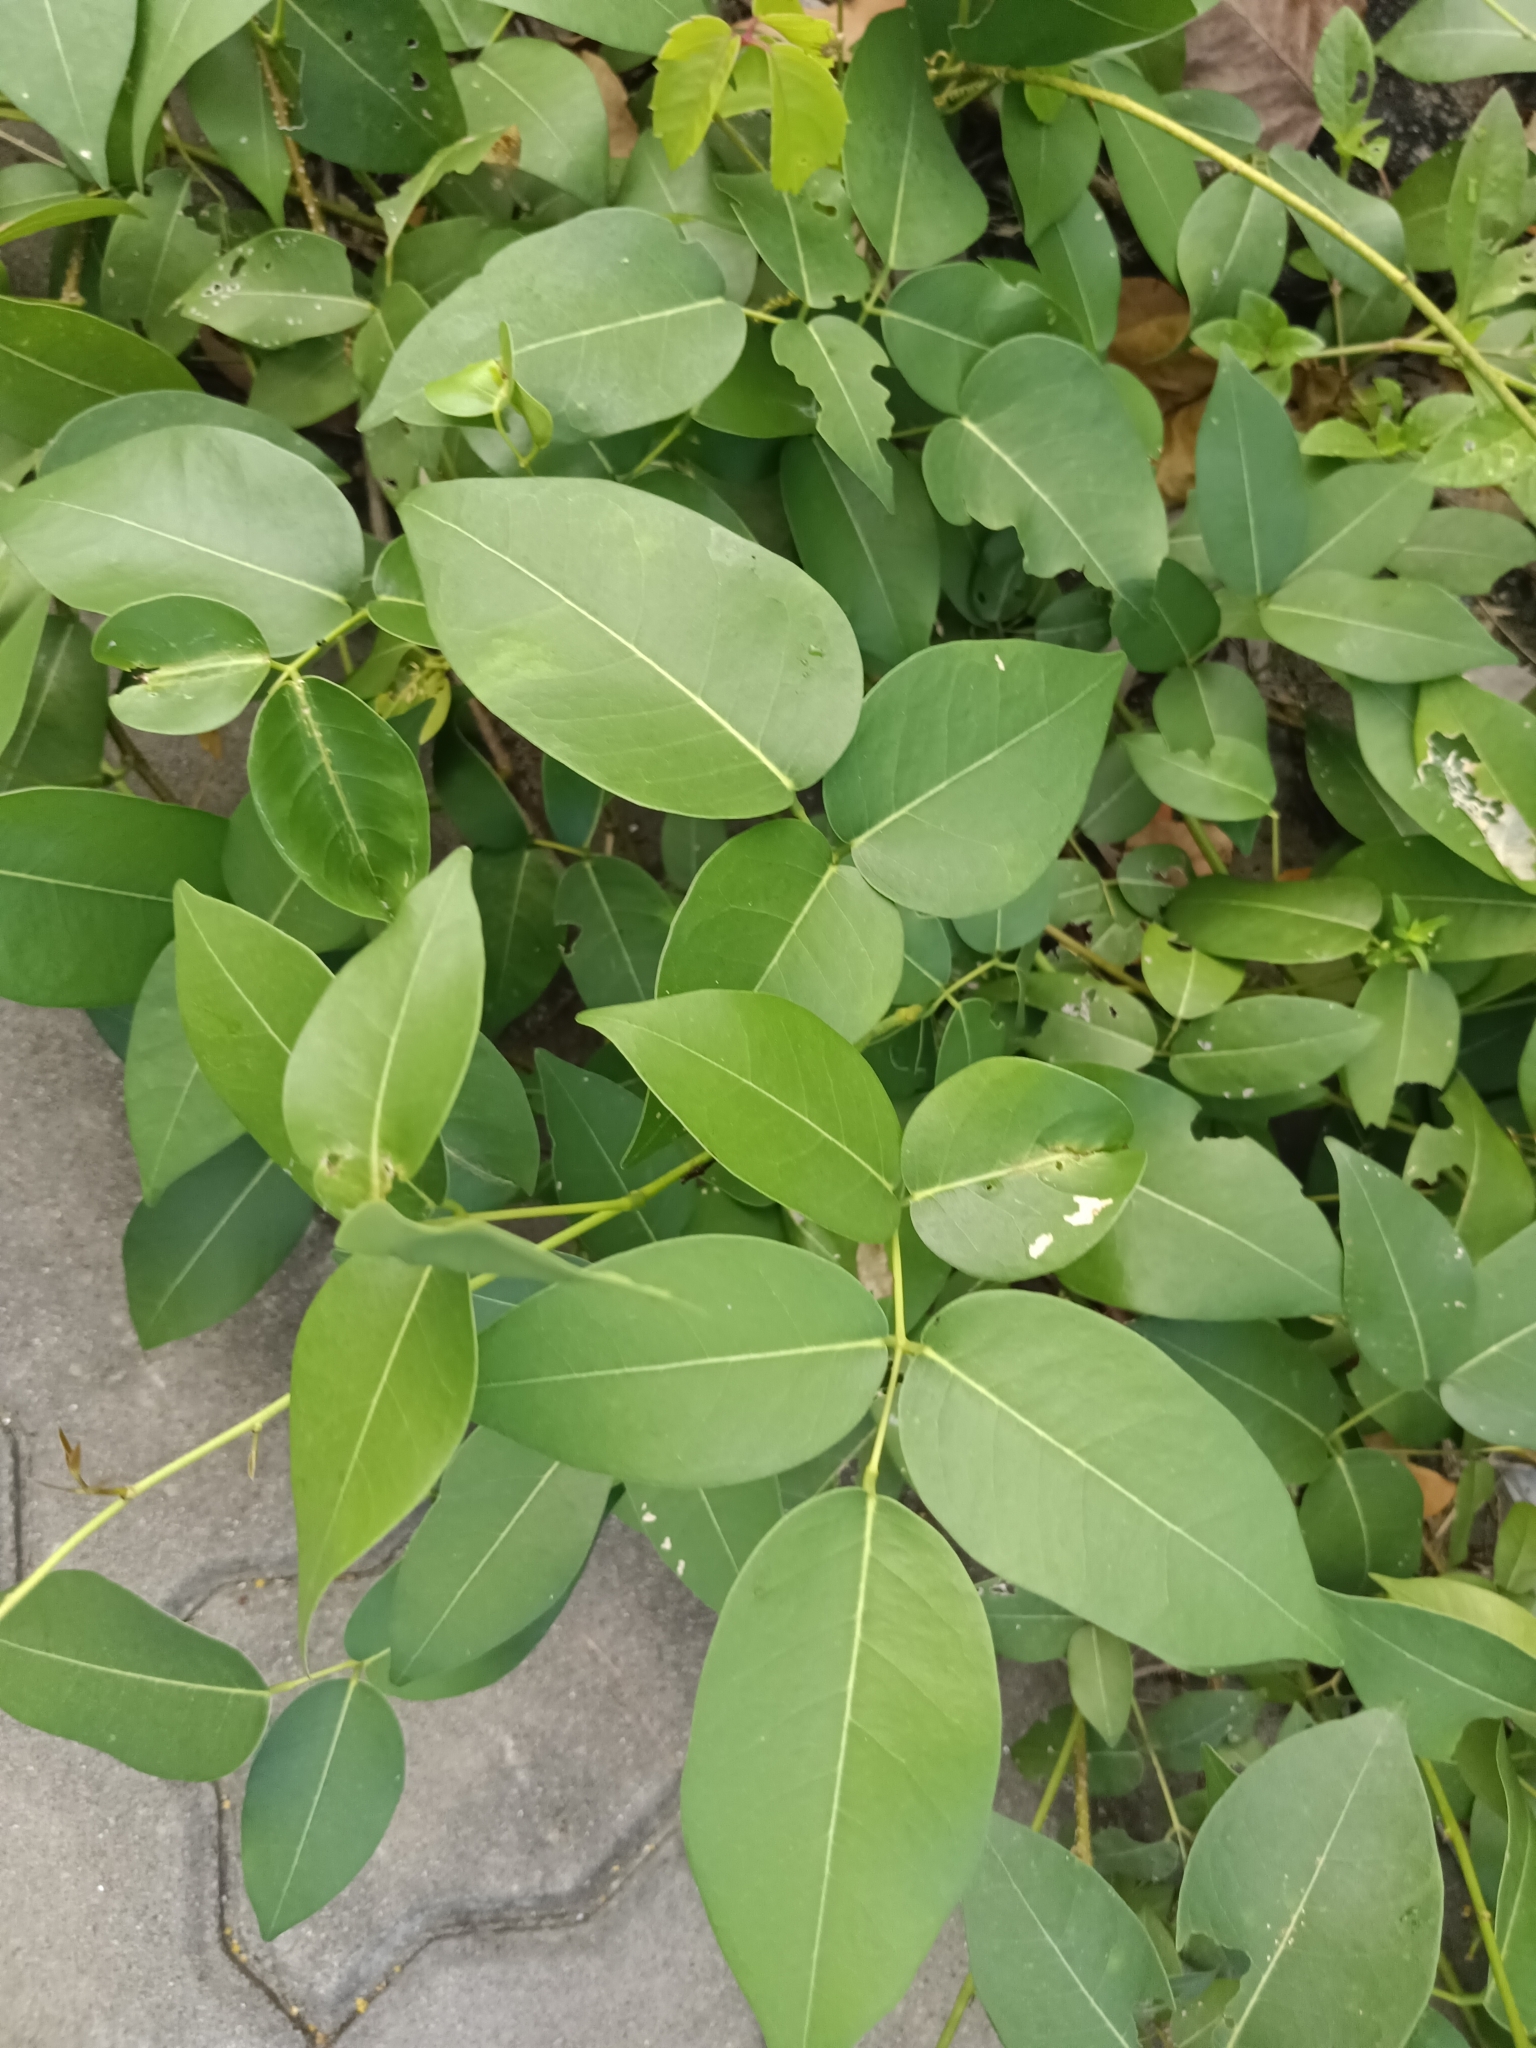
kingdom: Plantae
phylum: Tracheophyta
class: Magnoliopsida
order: Fabales
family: Fabaceae
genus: Derris
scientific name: Derris trifoliata
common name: Three-leaf derris
